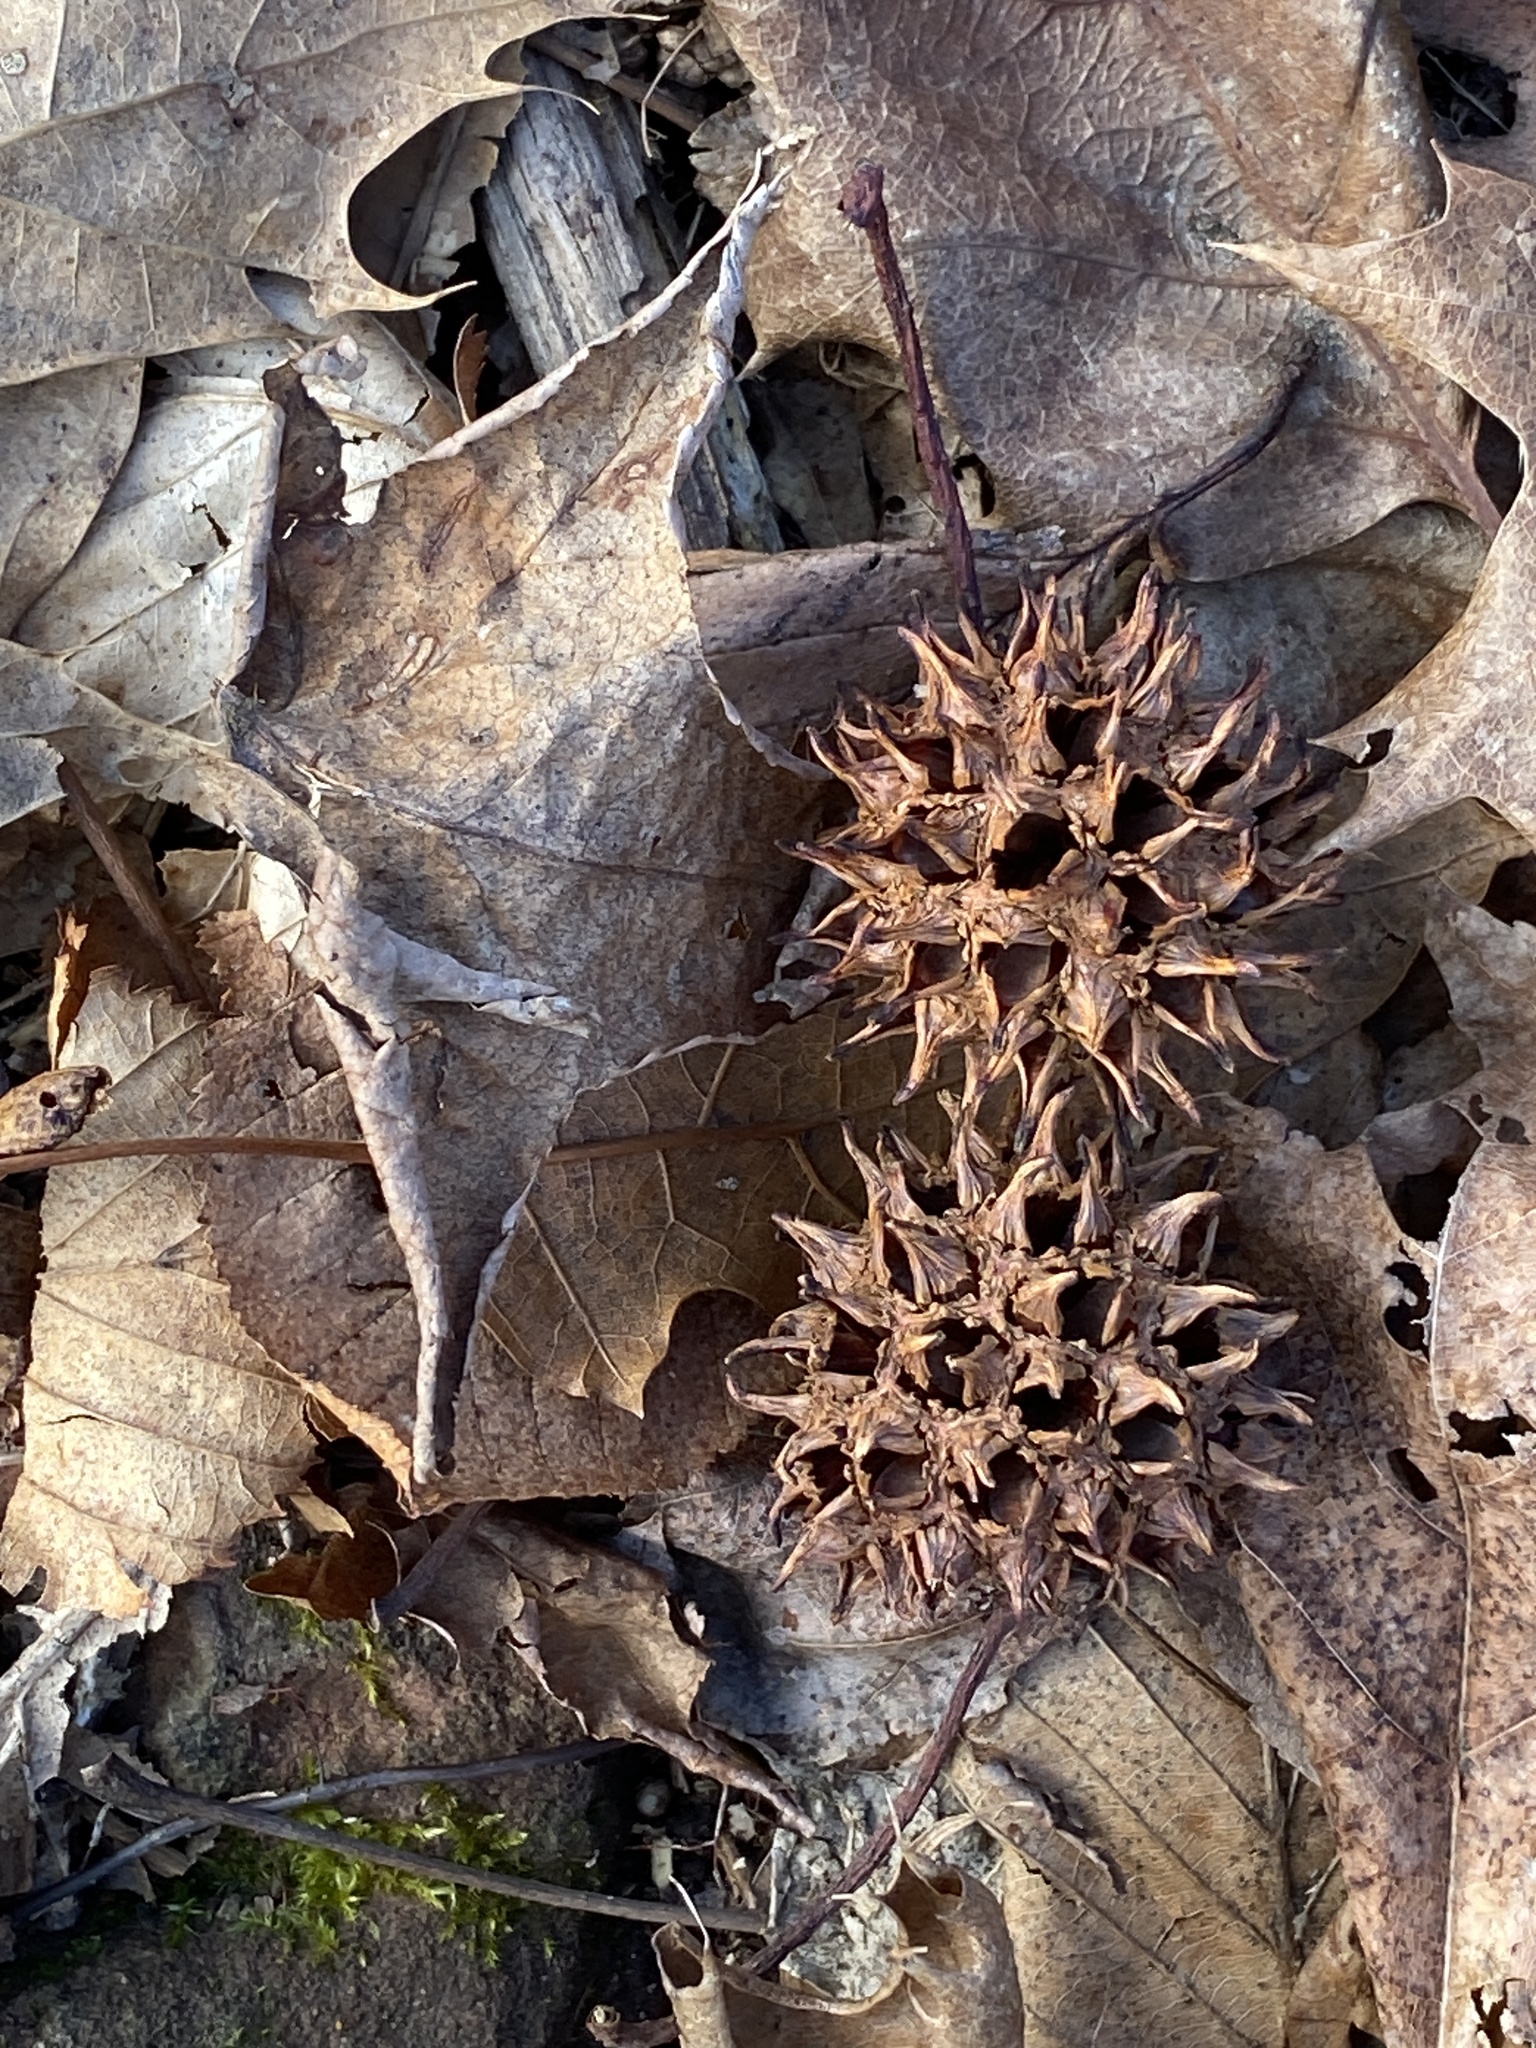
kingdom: Plantae
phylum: Tracheophyta
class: Magnoliopsida
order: Saxifragales
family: Altingiaceae
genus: Liquidambar
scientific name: Liquidambar styraciflua
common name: Sweet gum
